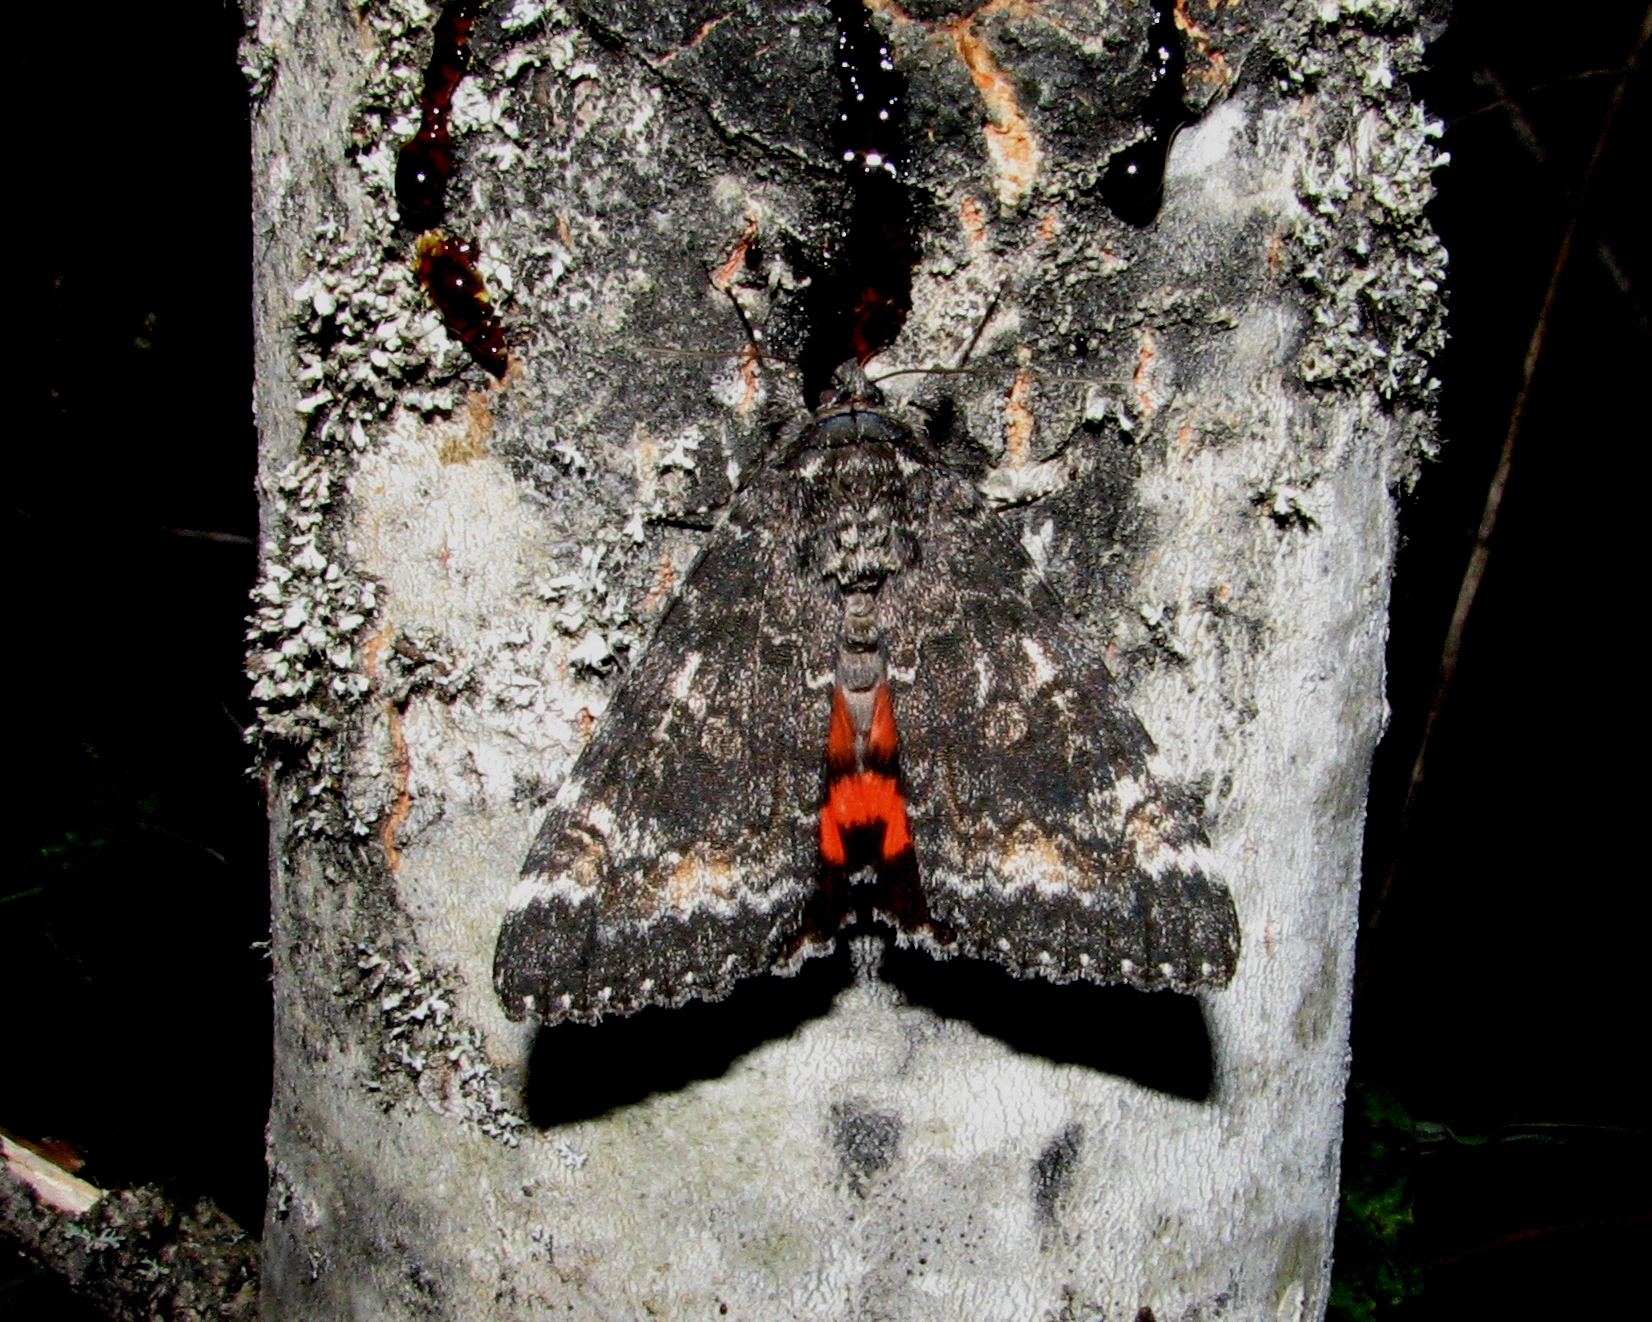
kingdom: Animalia
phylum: Arthropoda
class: Insecta
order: Lepidoptera
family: Erebidae
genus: Catocala
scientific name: Catocala briseis
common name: Briseis underwing
